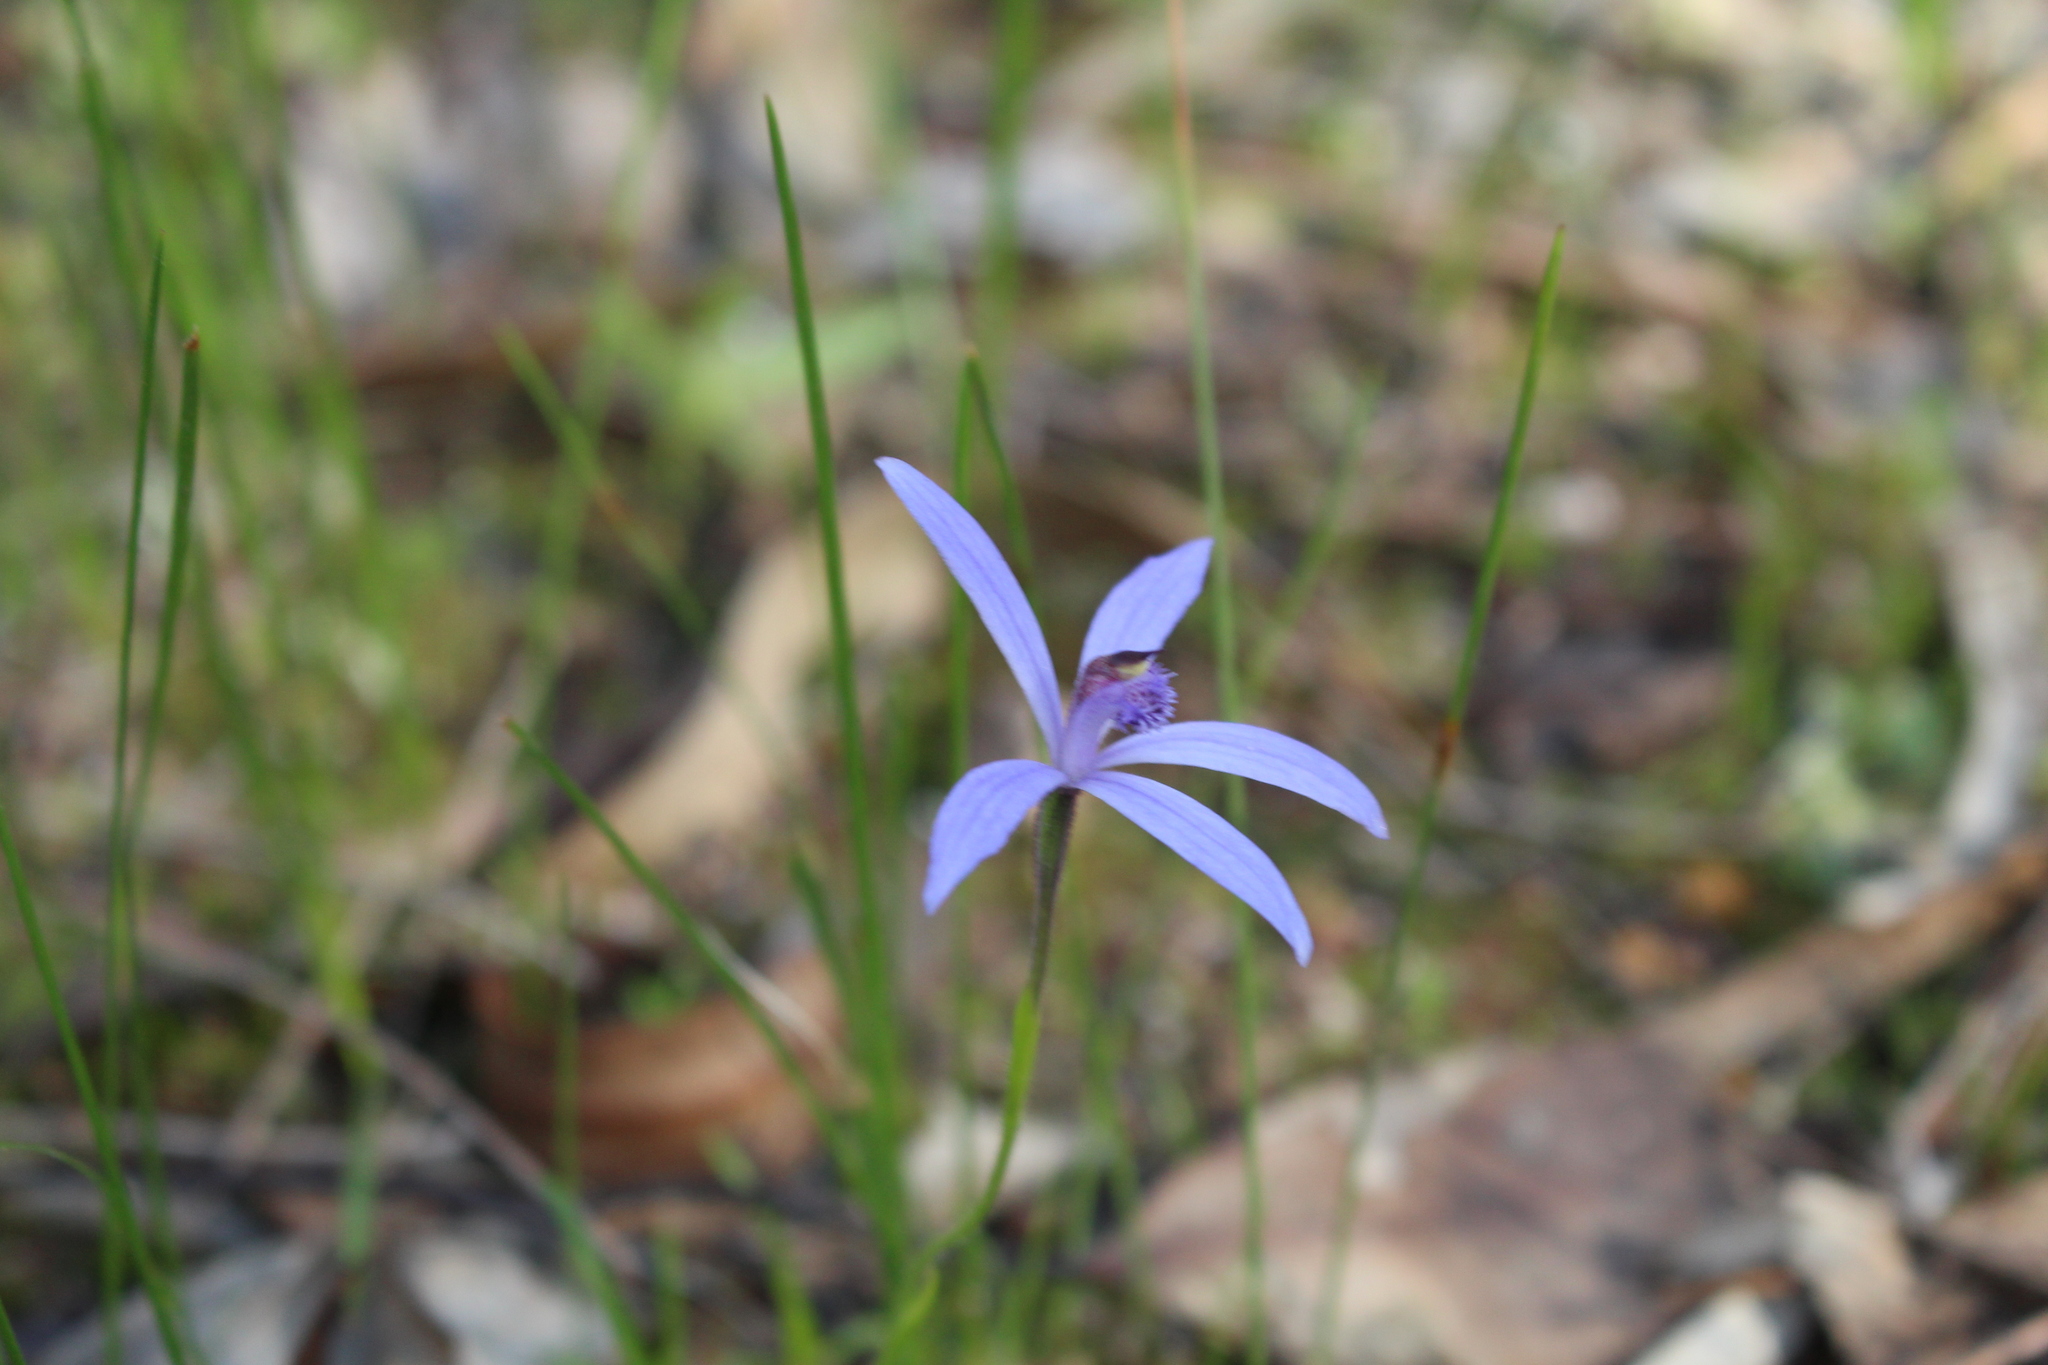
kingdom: Plantae
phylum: Tracheophyta
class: Liliopsida
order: Asparagales
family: Orchidaceae
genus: Pheladenia
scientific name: Pheladenia deformis
